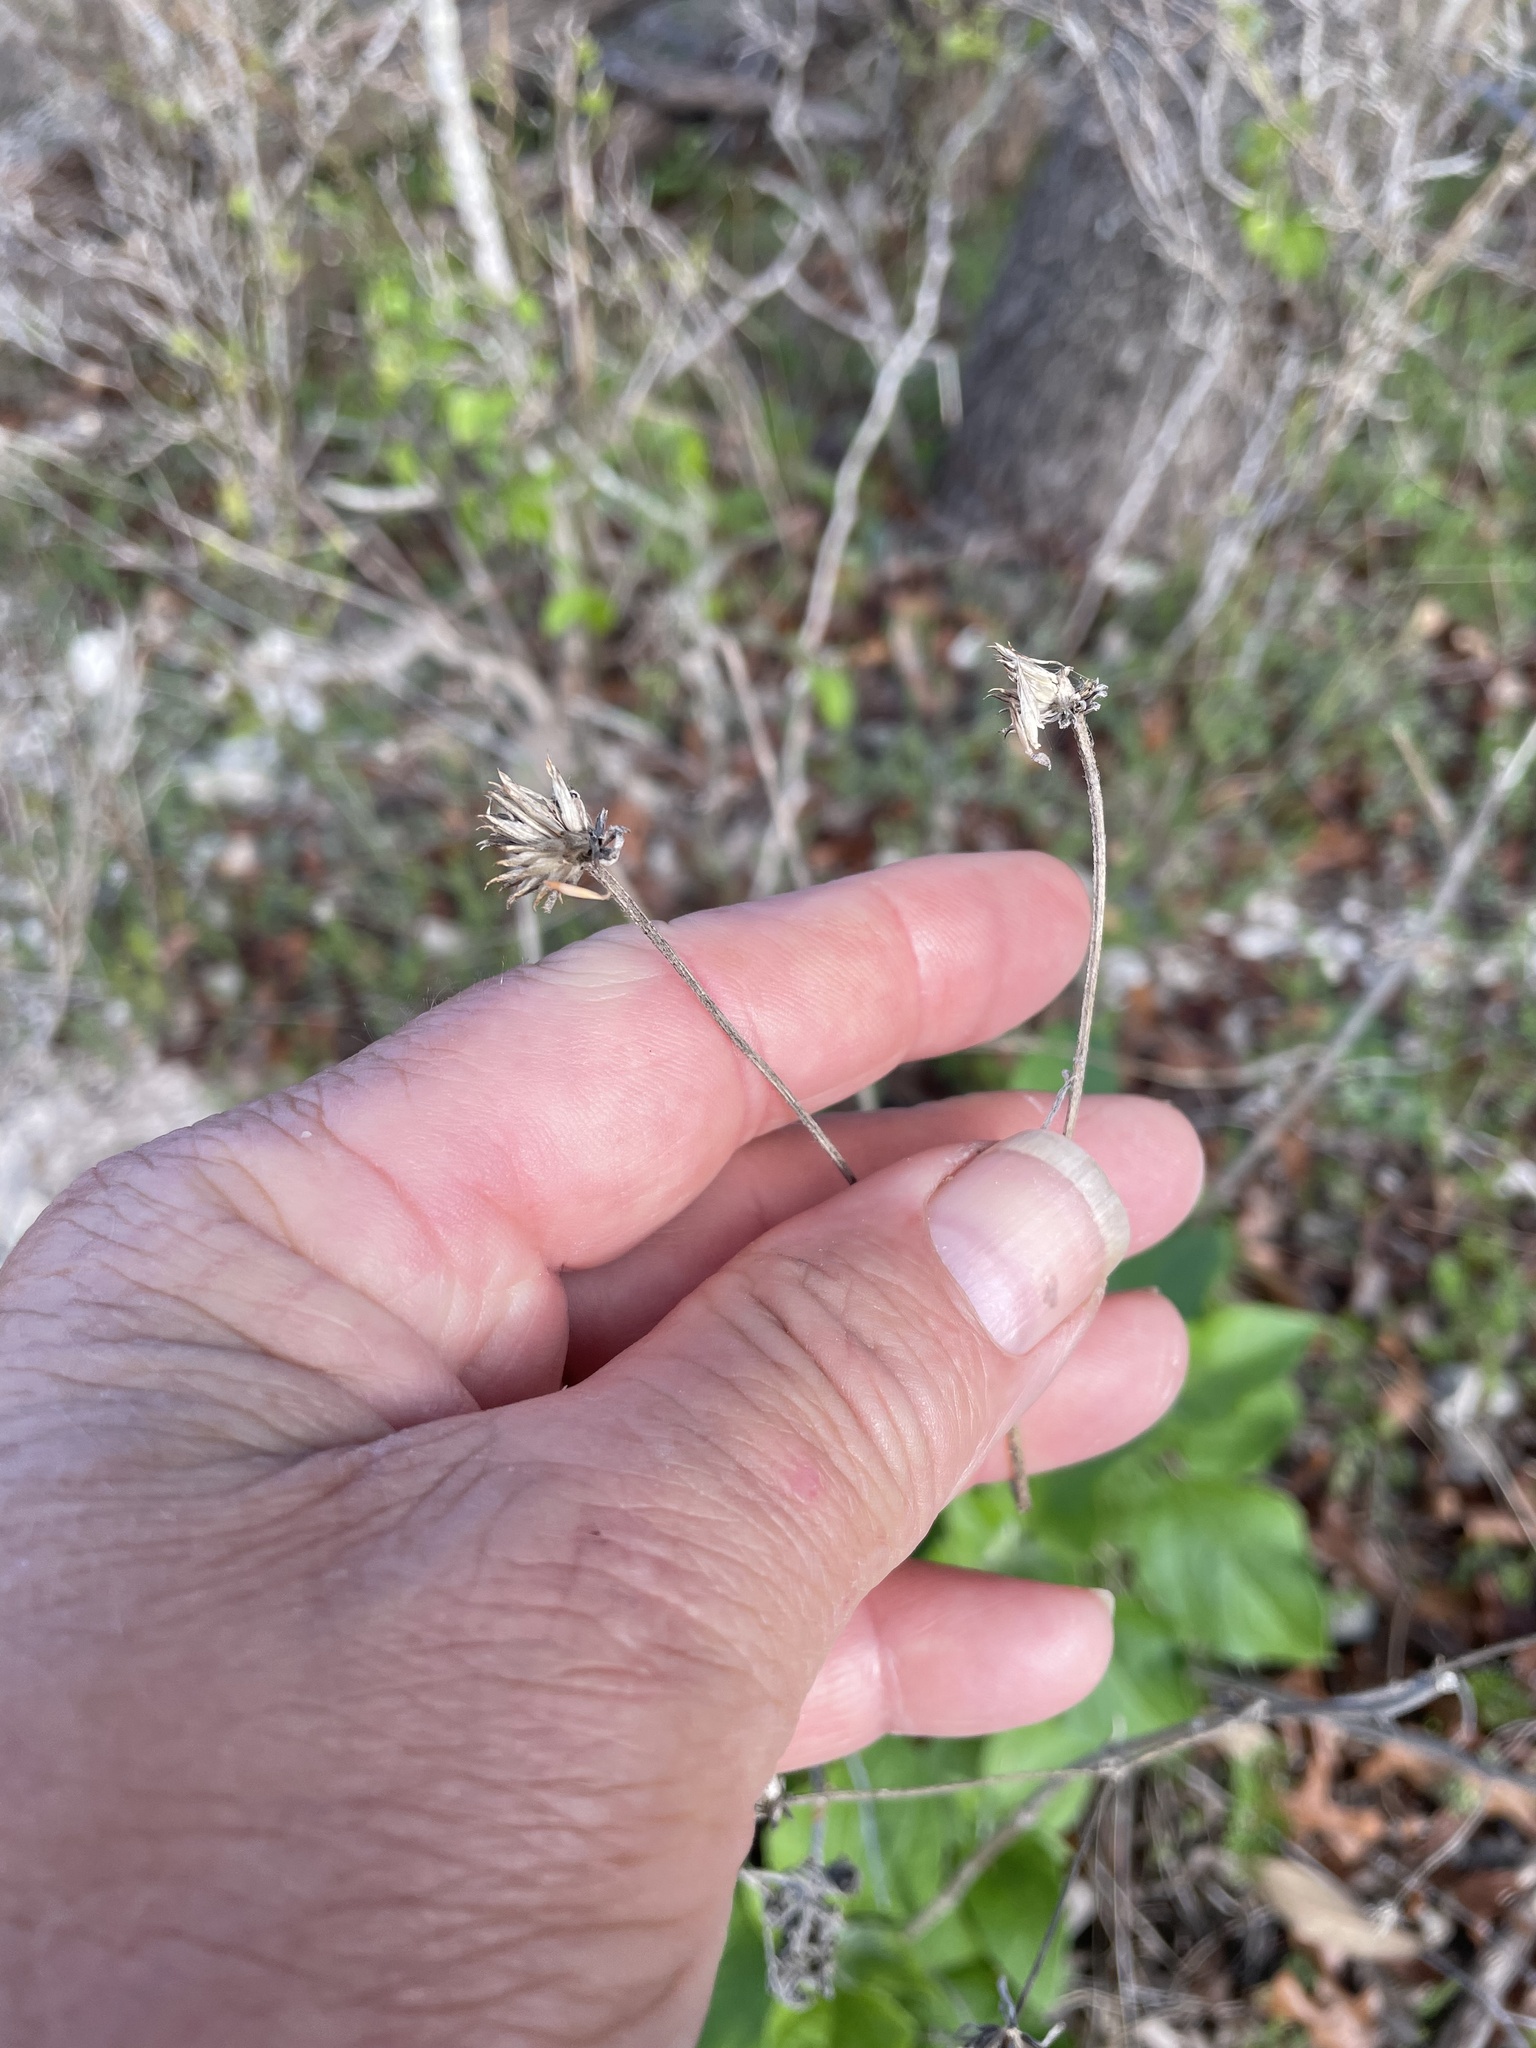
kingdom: Plantae
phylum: Tracheophyta
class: Magnoliopsida
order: Asterales
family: Asteraceae
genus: Viguiera
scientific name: Viguiera dentata
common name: Toothleaf
